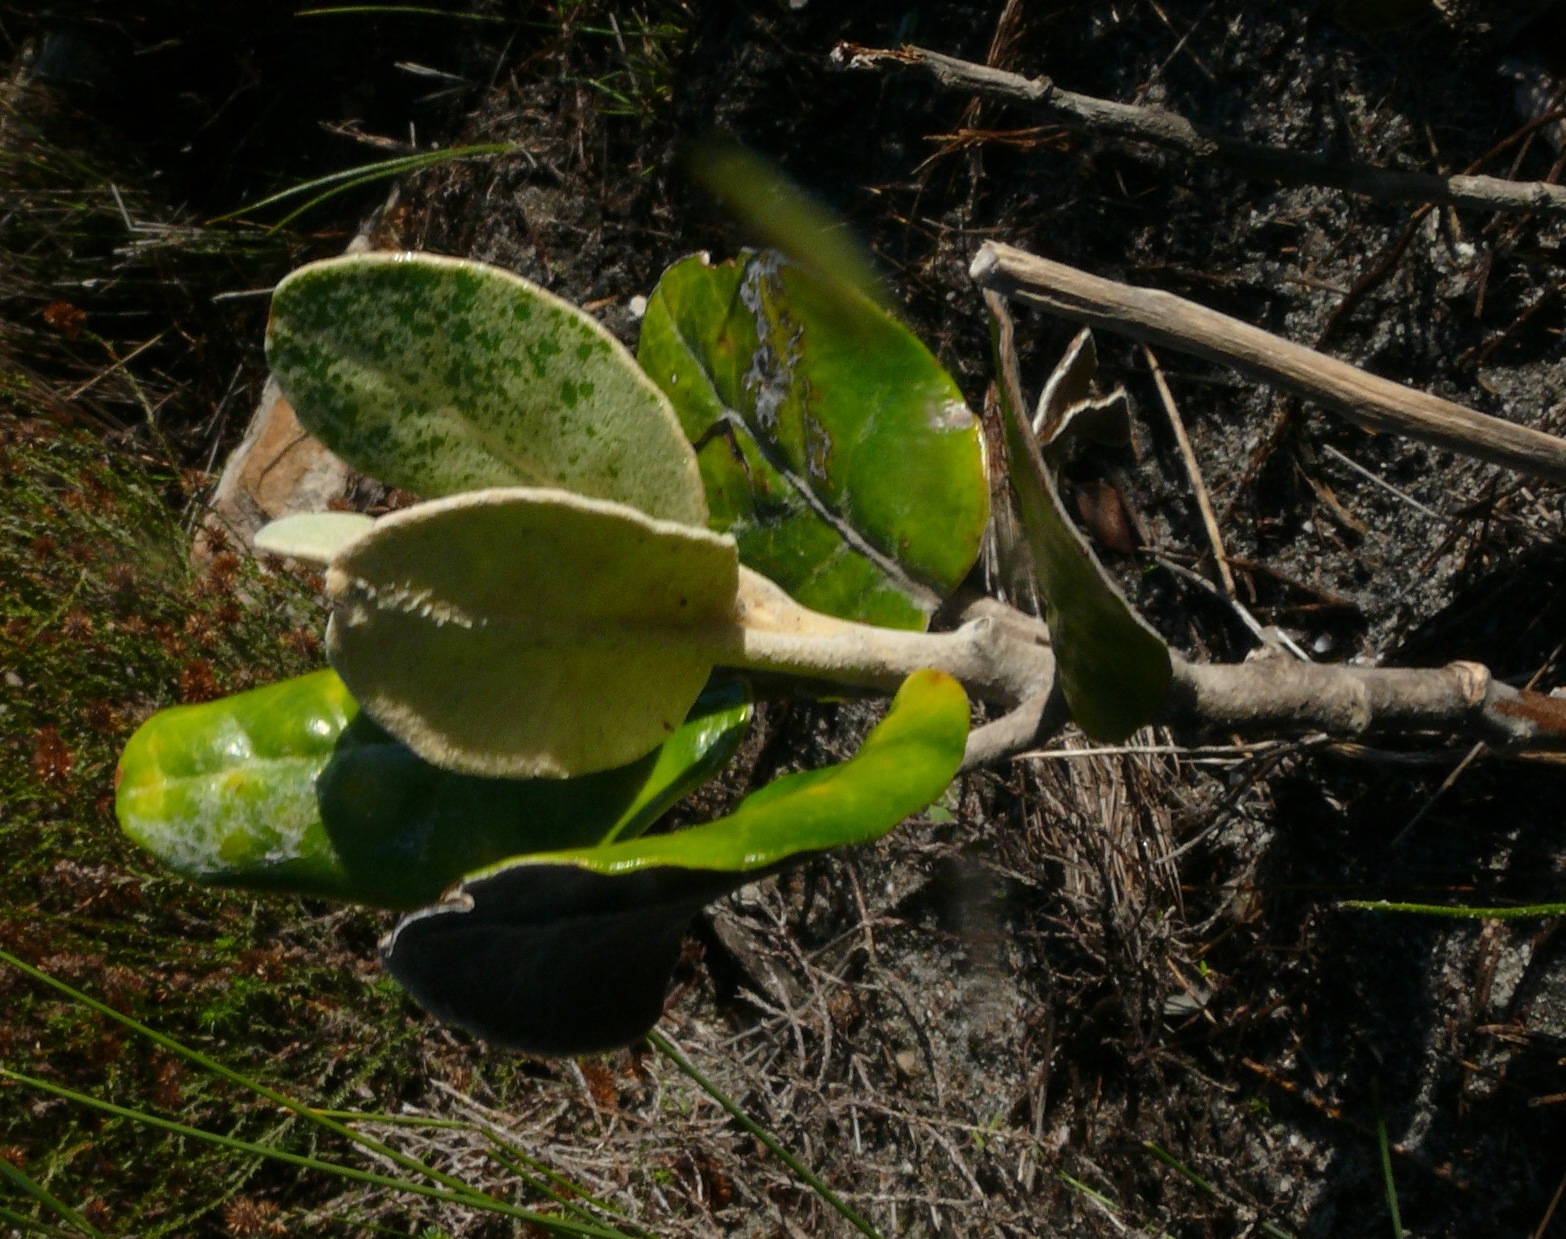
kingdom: Plantae
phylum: Tracheophyta
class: Magnoliopsida
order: Asterales
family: Asteraceae
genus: Capelio
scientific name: Capelio tabularis
